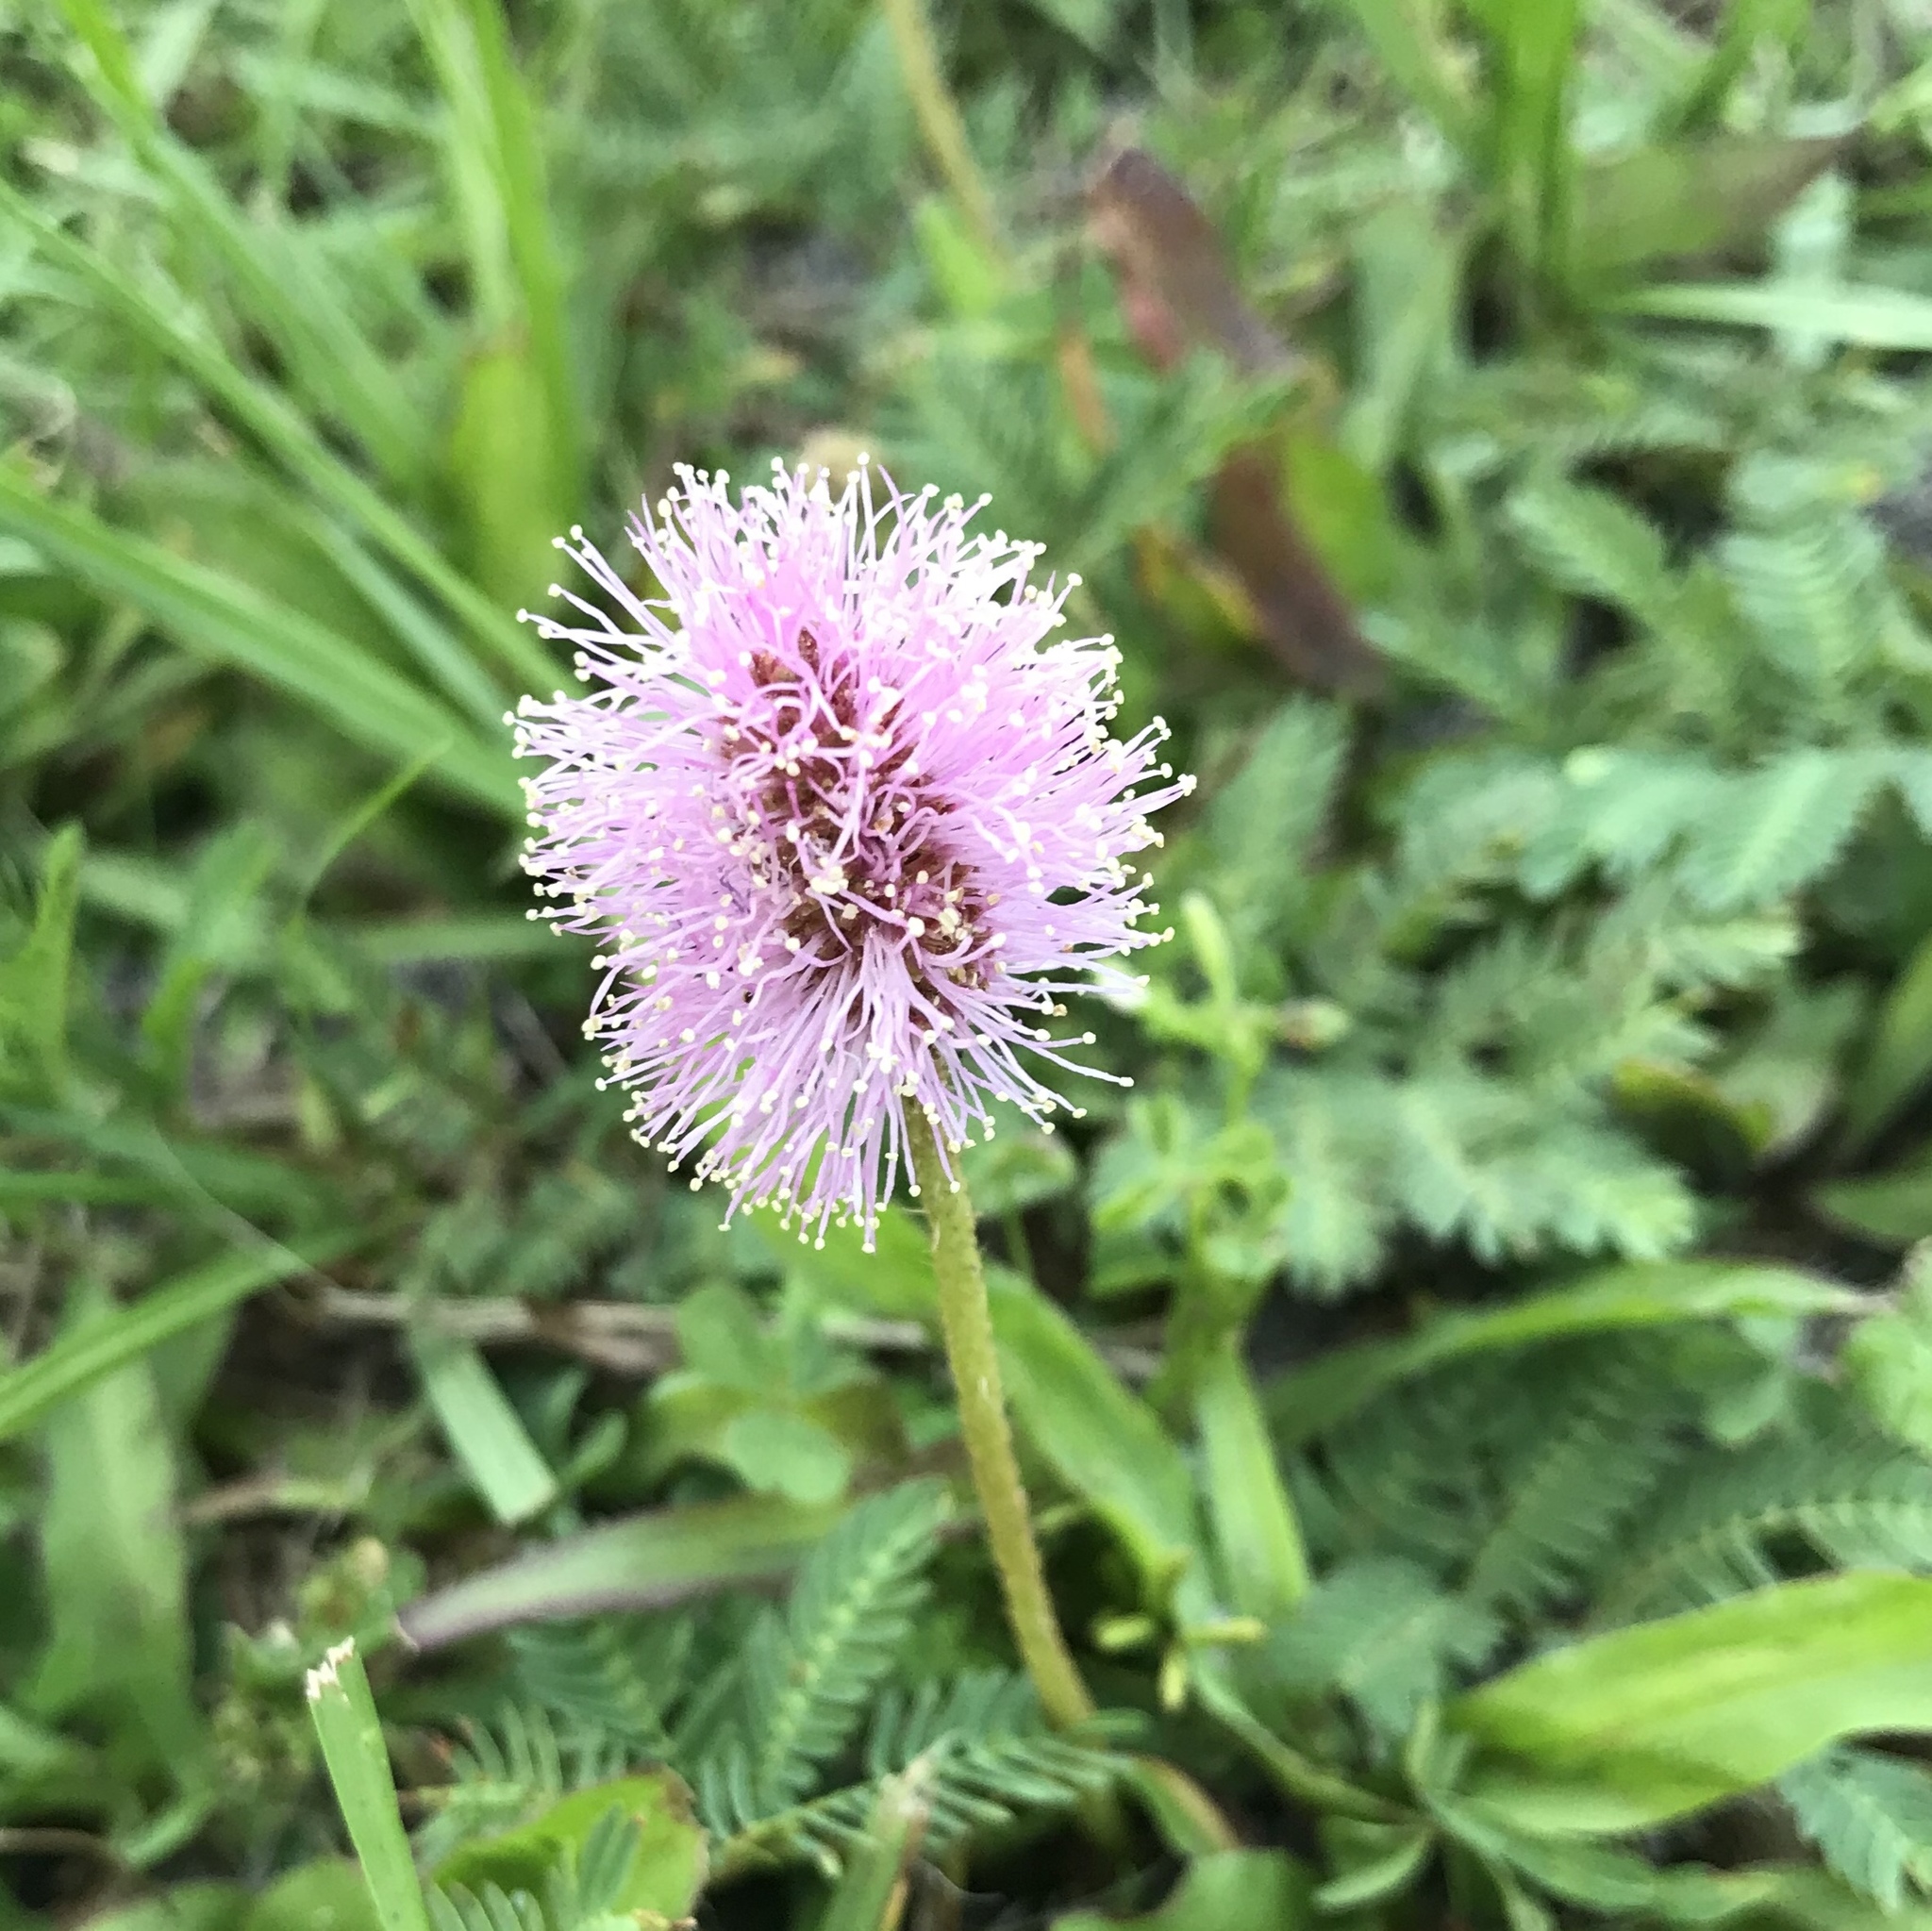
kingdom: Plantae
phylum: Tracheophyta
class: Magnoliopsida
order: Fabales
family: Fabaceae
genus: Mimosa
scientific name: Mimosa strigillosa
